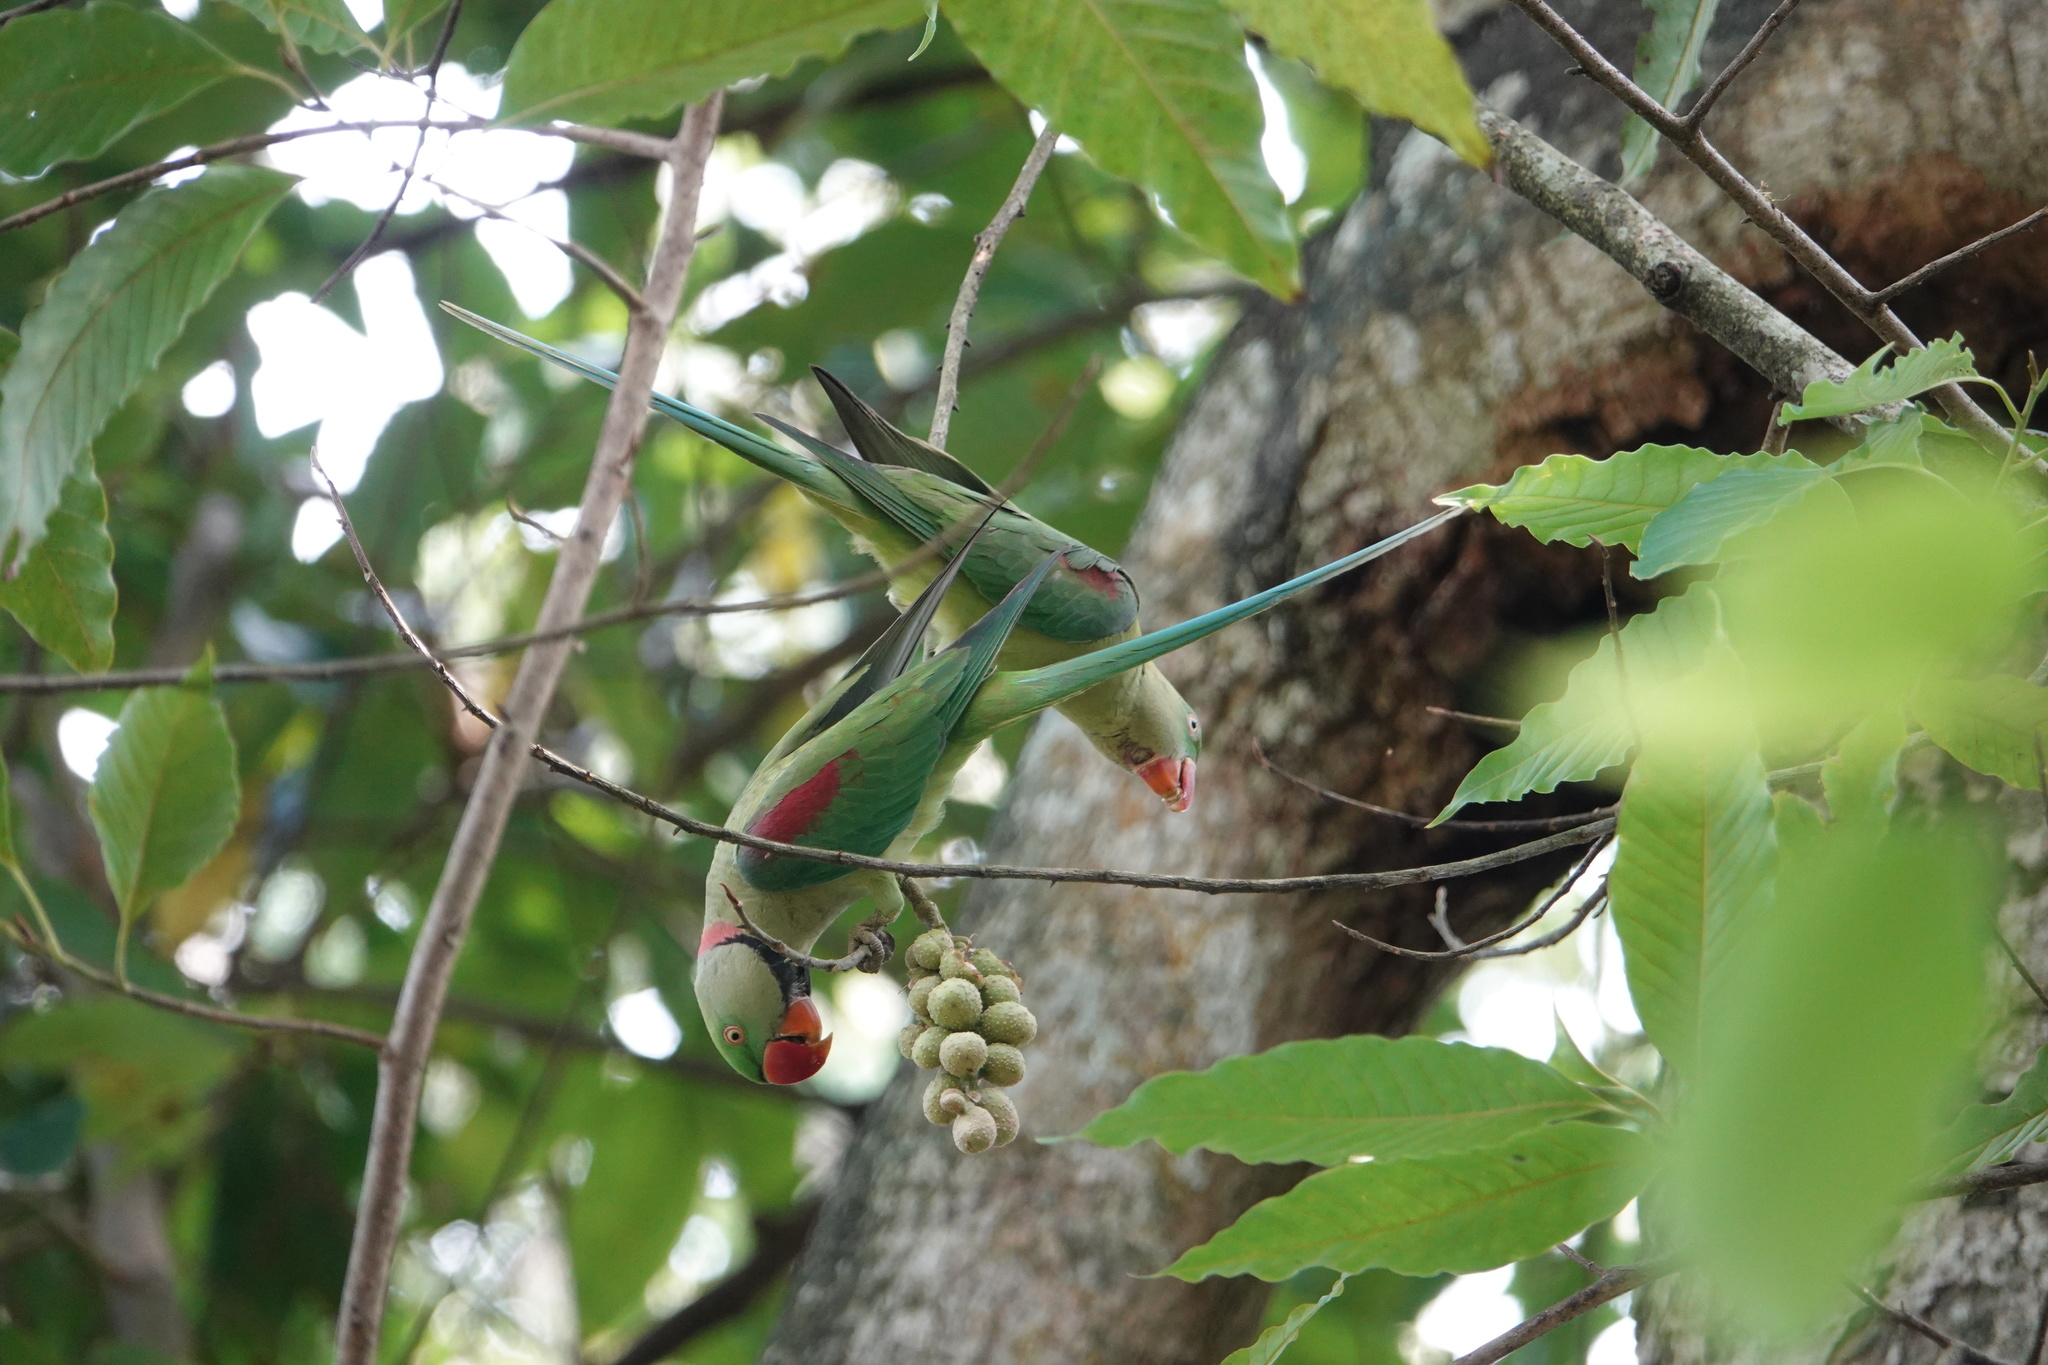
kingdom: Animalia
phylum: Chordata
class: Aves
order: Psittaciformes
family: Psittacidae
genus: Psittacula
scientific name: Psittacula eupatria
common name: Alexandrine parakeet
